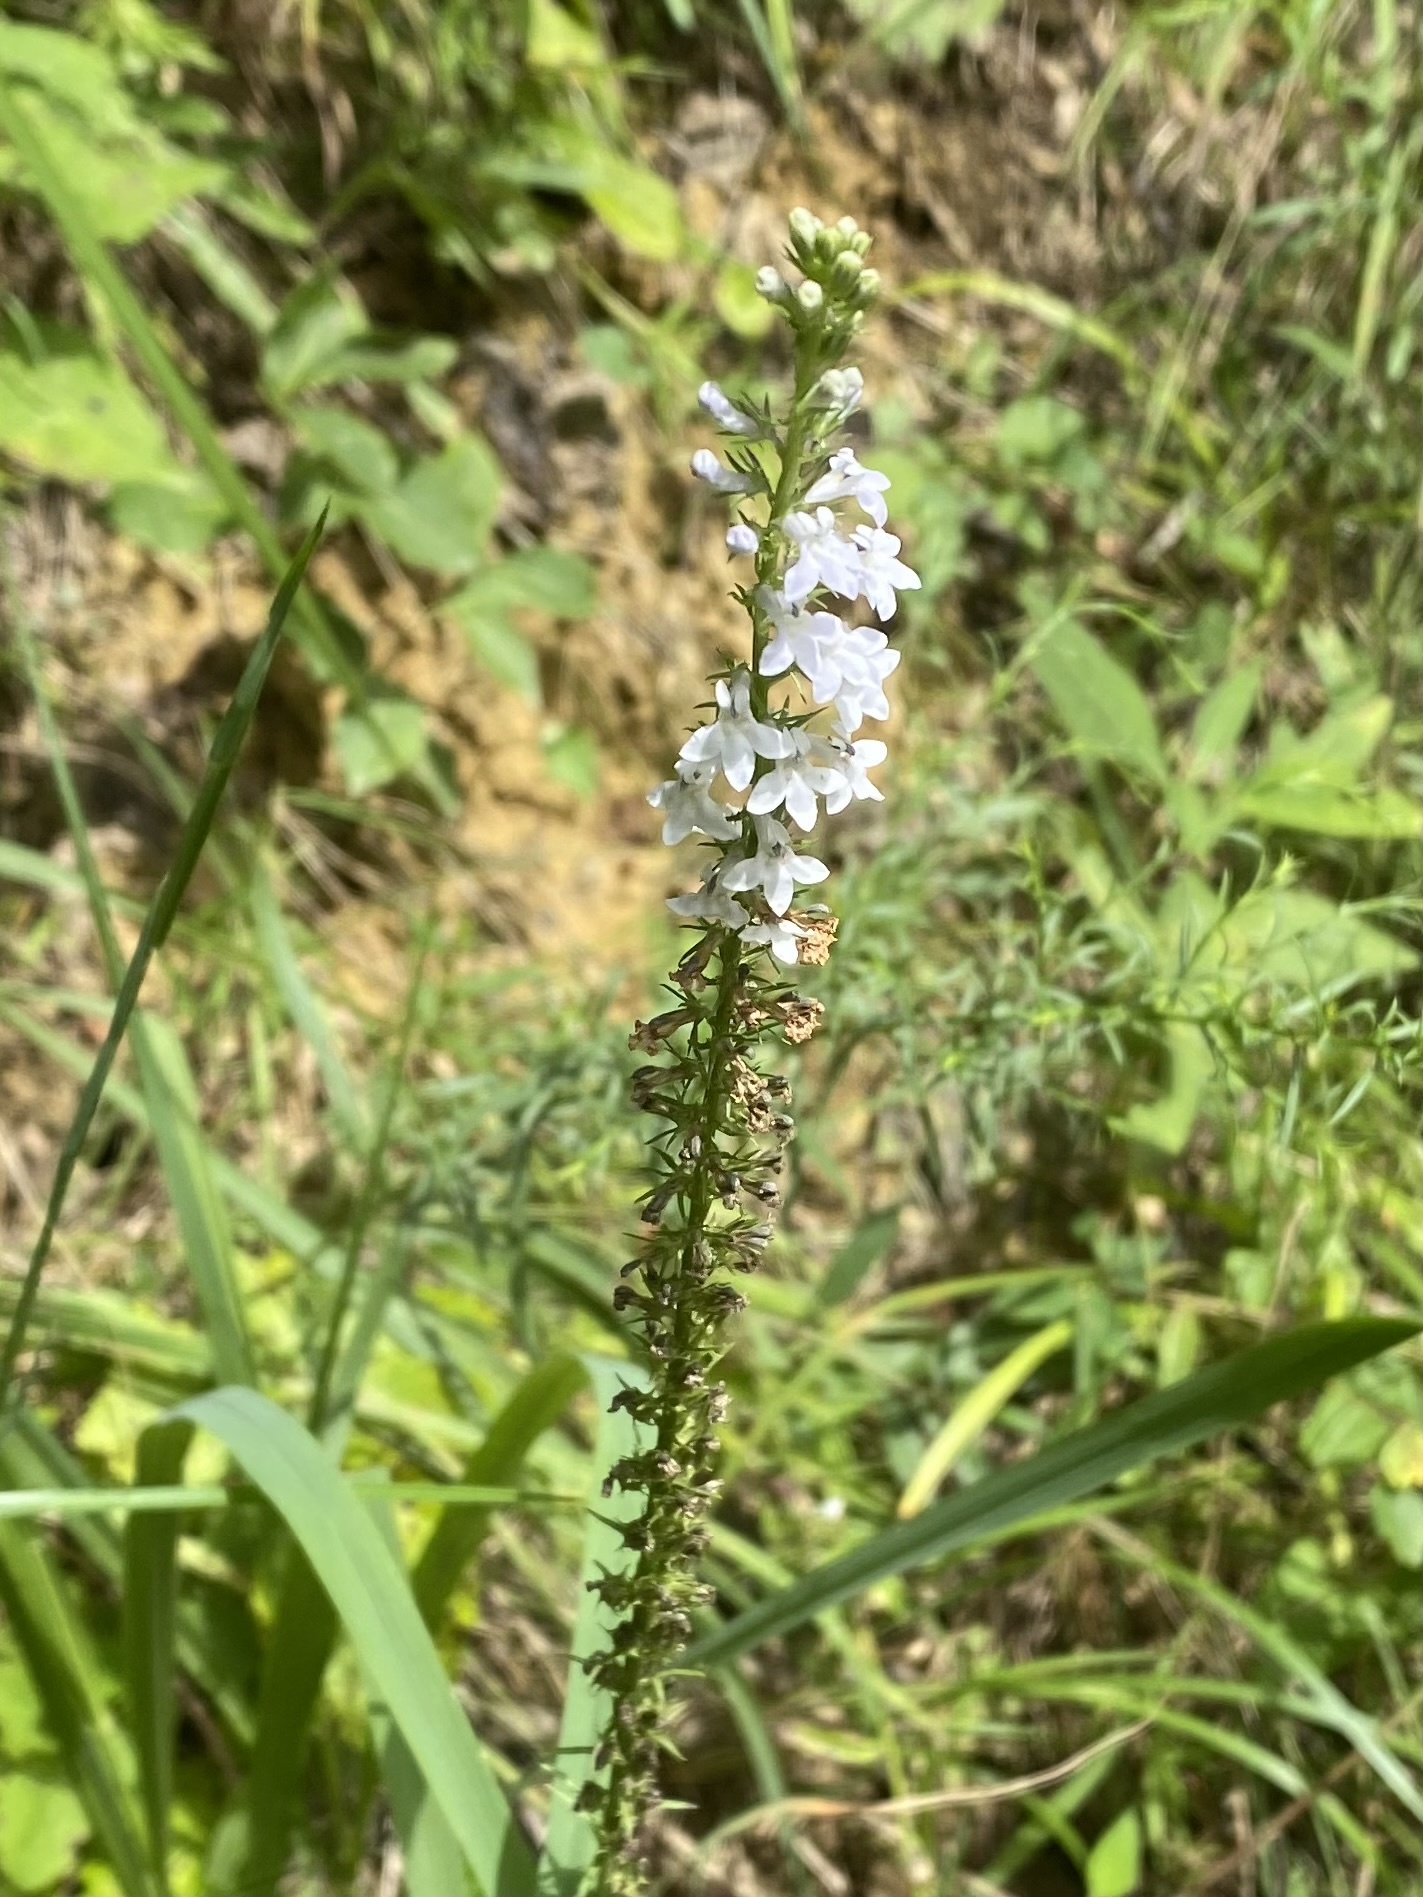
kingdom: Plantae
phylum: Tracheophyta
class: Magnoliopsida
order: Asterales
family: Campanulaceae
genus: Lobelia
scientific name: Lobelia spicata
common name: Pale-spike lobelia
